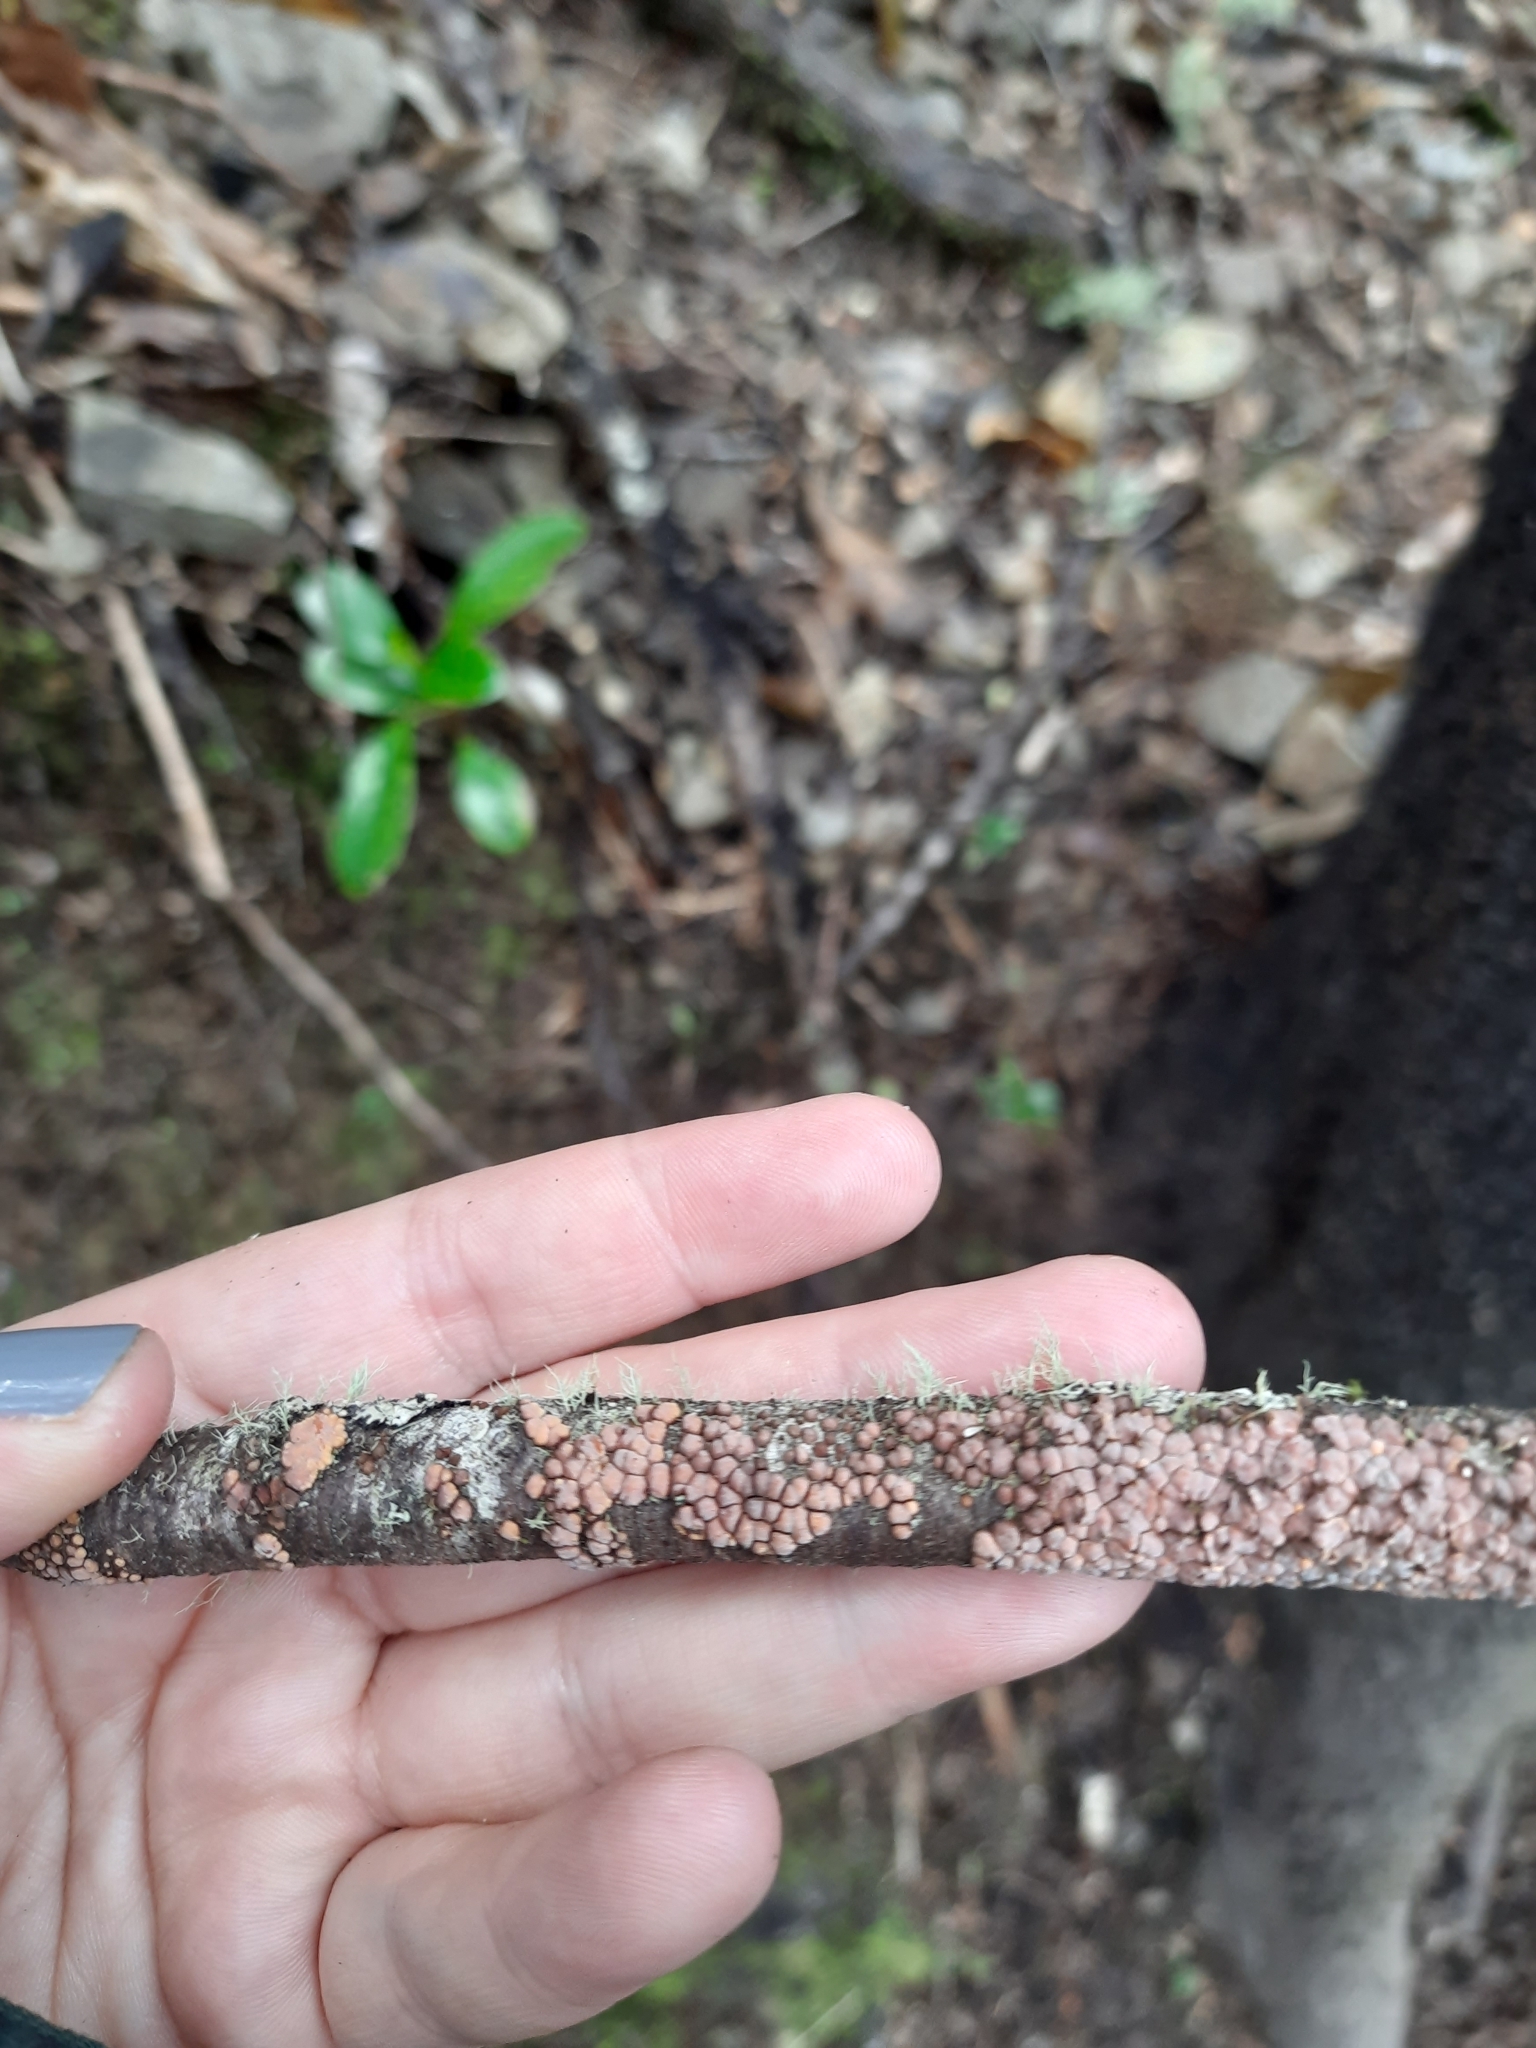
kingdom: Fungi
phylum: Basidiomycota
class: Agaricomycetes
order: Russulales
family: Stereaceae
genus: Aleurodiscus
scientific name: Aleurodiscus berggrenii
